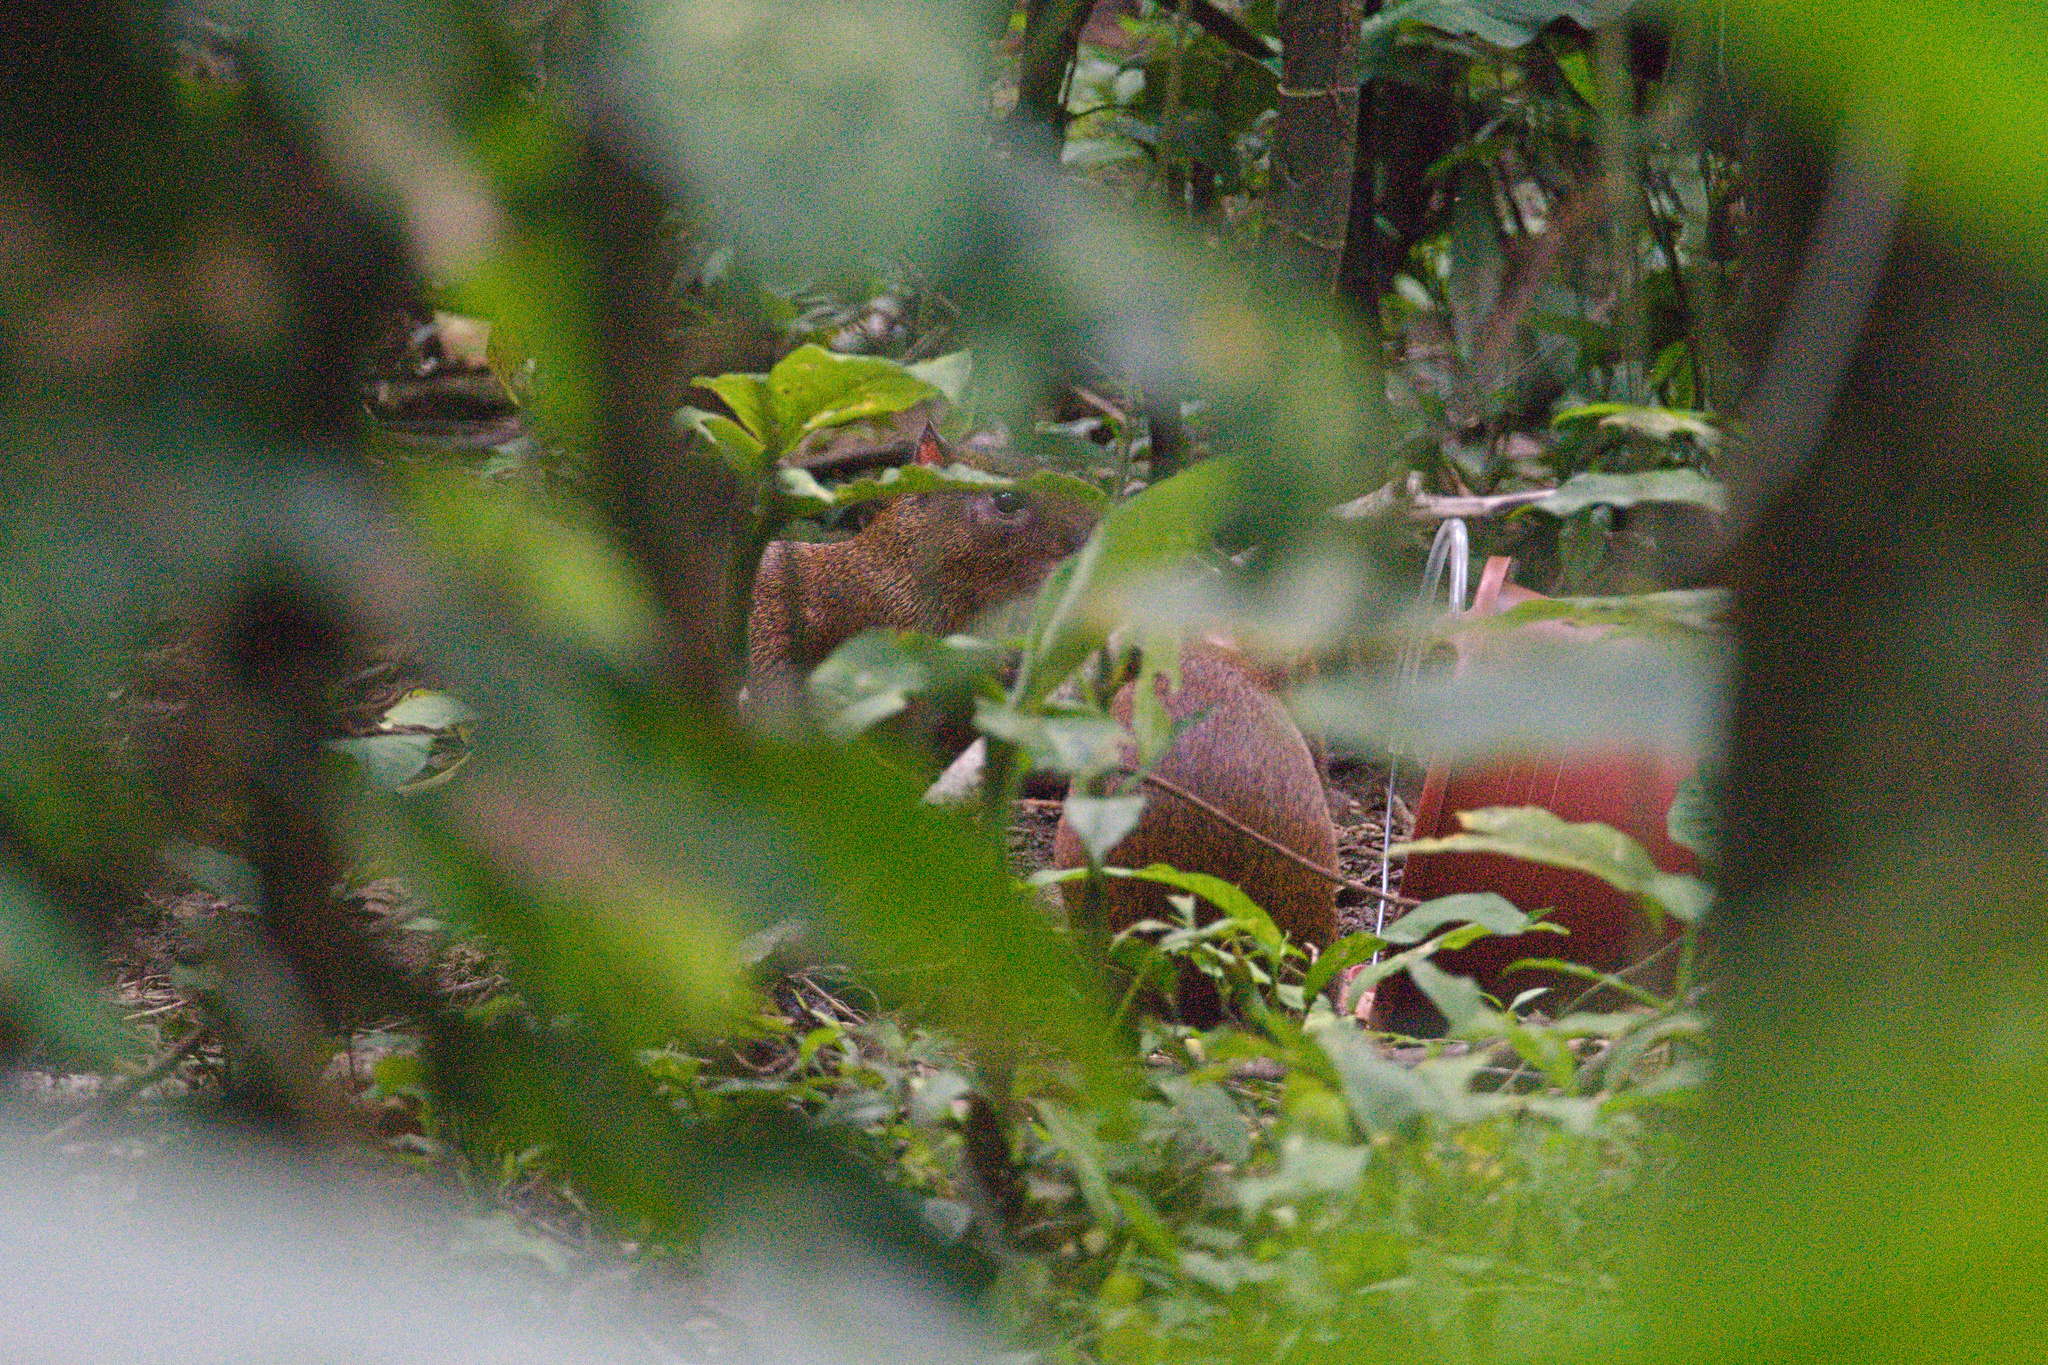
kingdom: Animalia
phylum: Chordata
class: Mammalia
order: Rodentia
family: Dasyproctidae
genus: Dasyprocta
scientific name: Dasyprocta punctata
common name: Central american agouti
